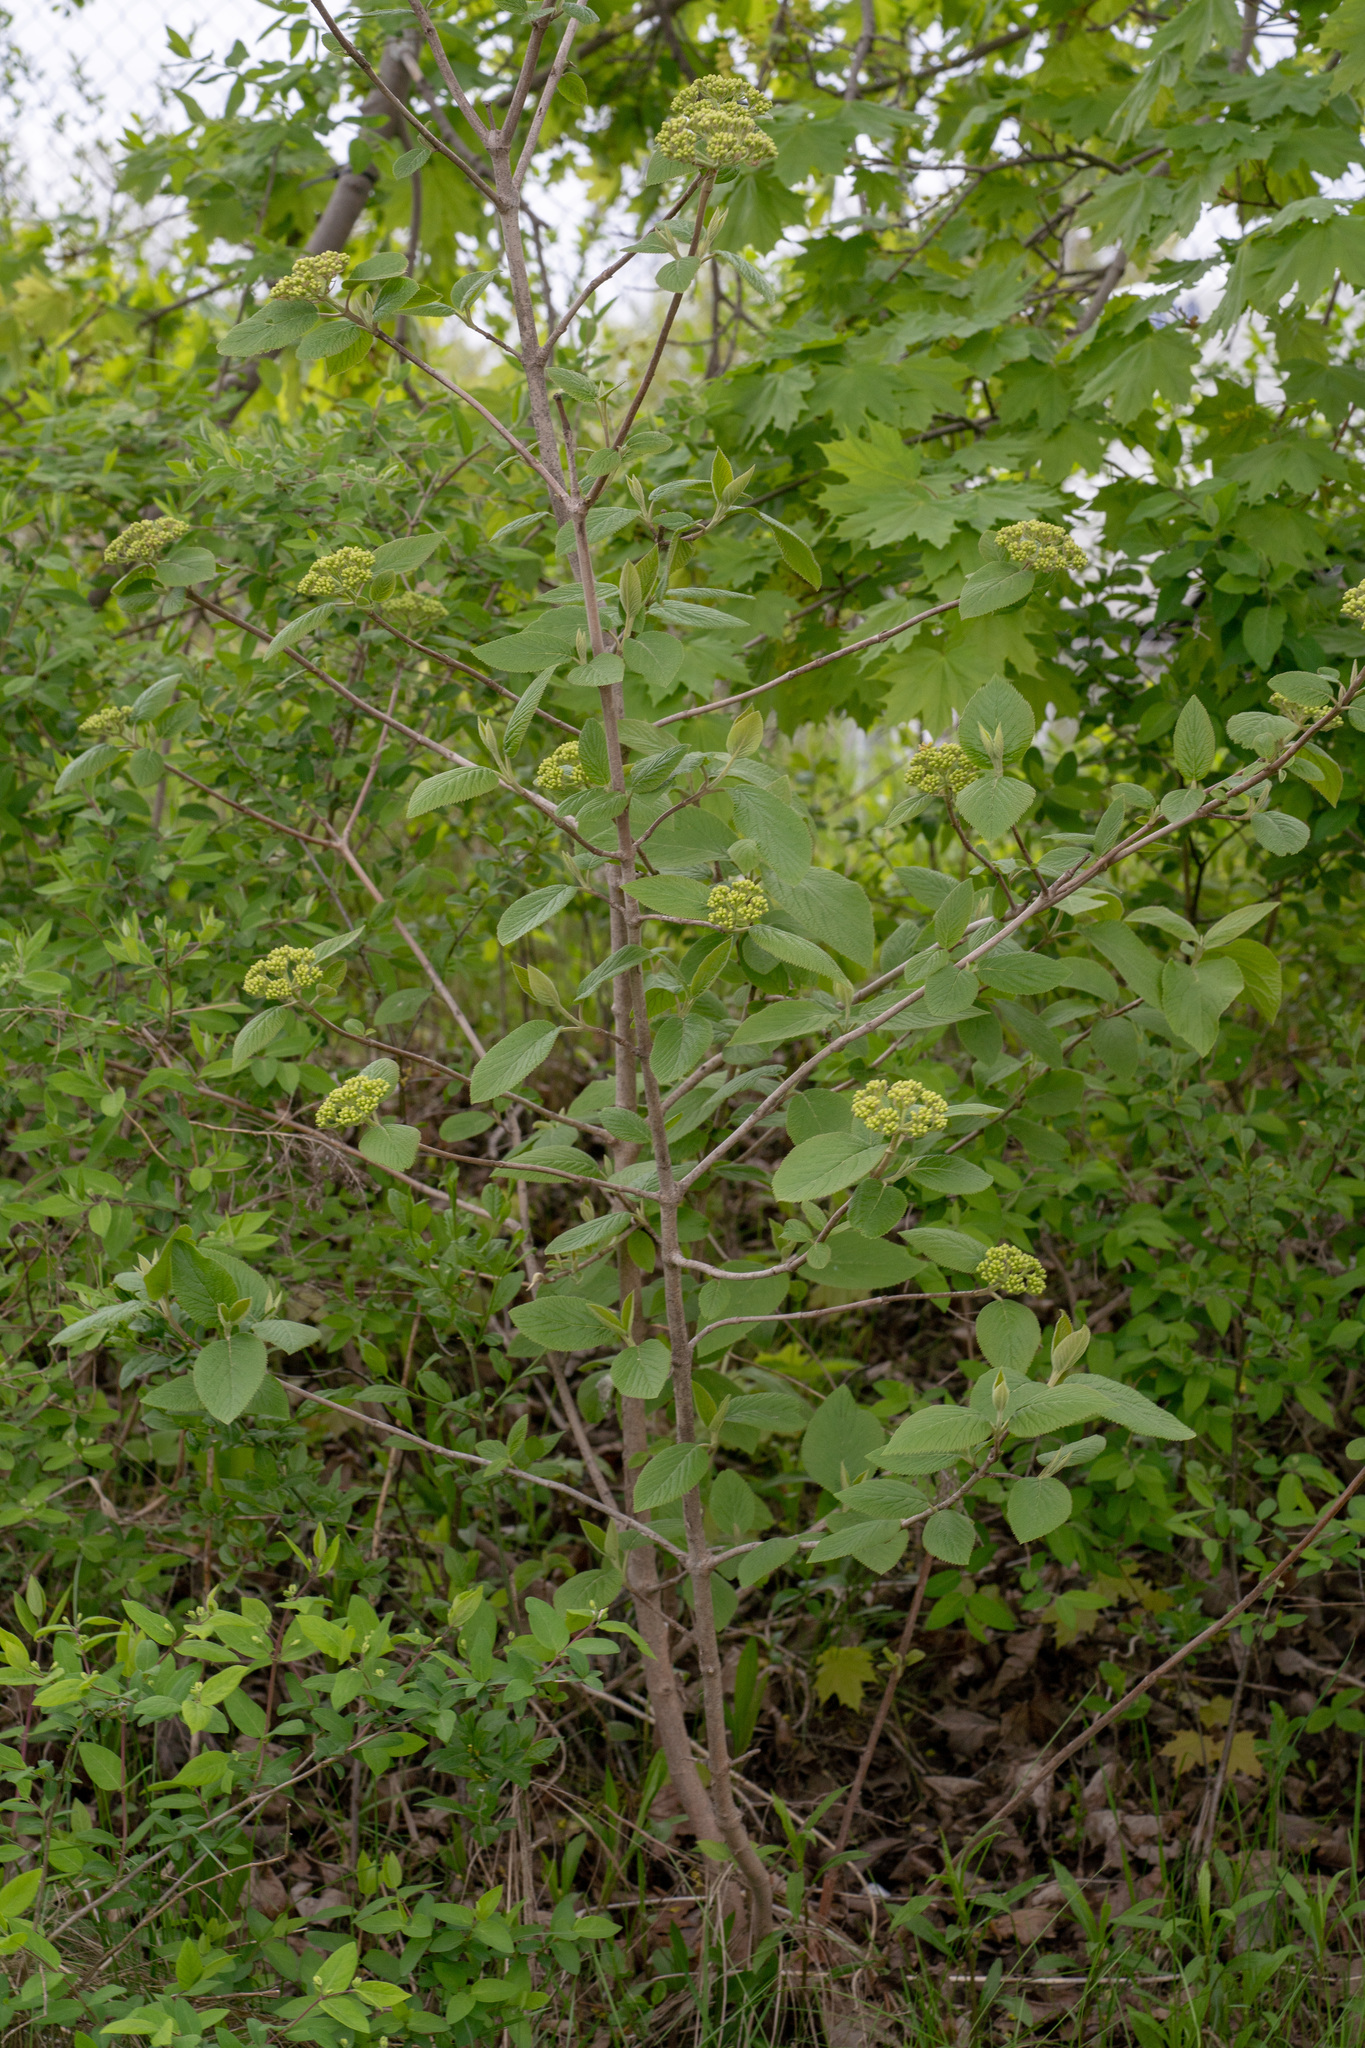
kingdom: Plantae
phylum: Tracheophyta
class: Magnoliopsida
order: Dipsacales
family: Viburnaceae
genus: Viburnum
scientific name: Viburnum lantana
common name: Wayfaring tree
